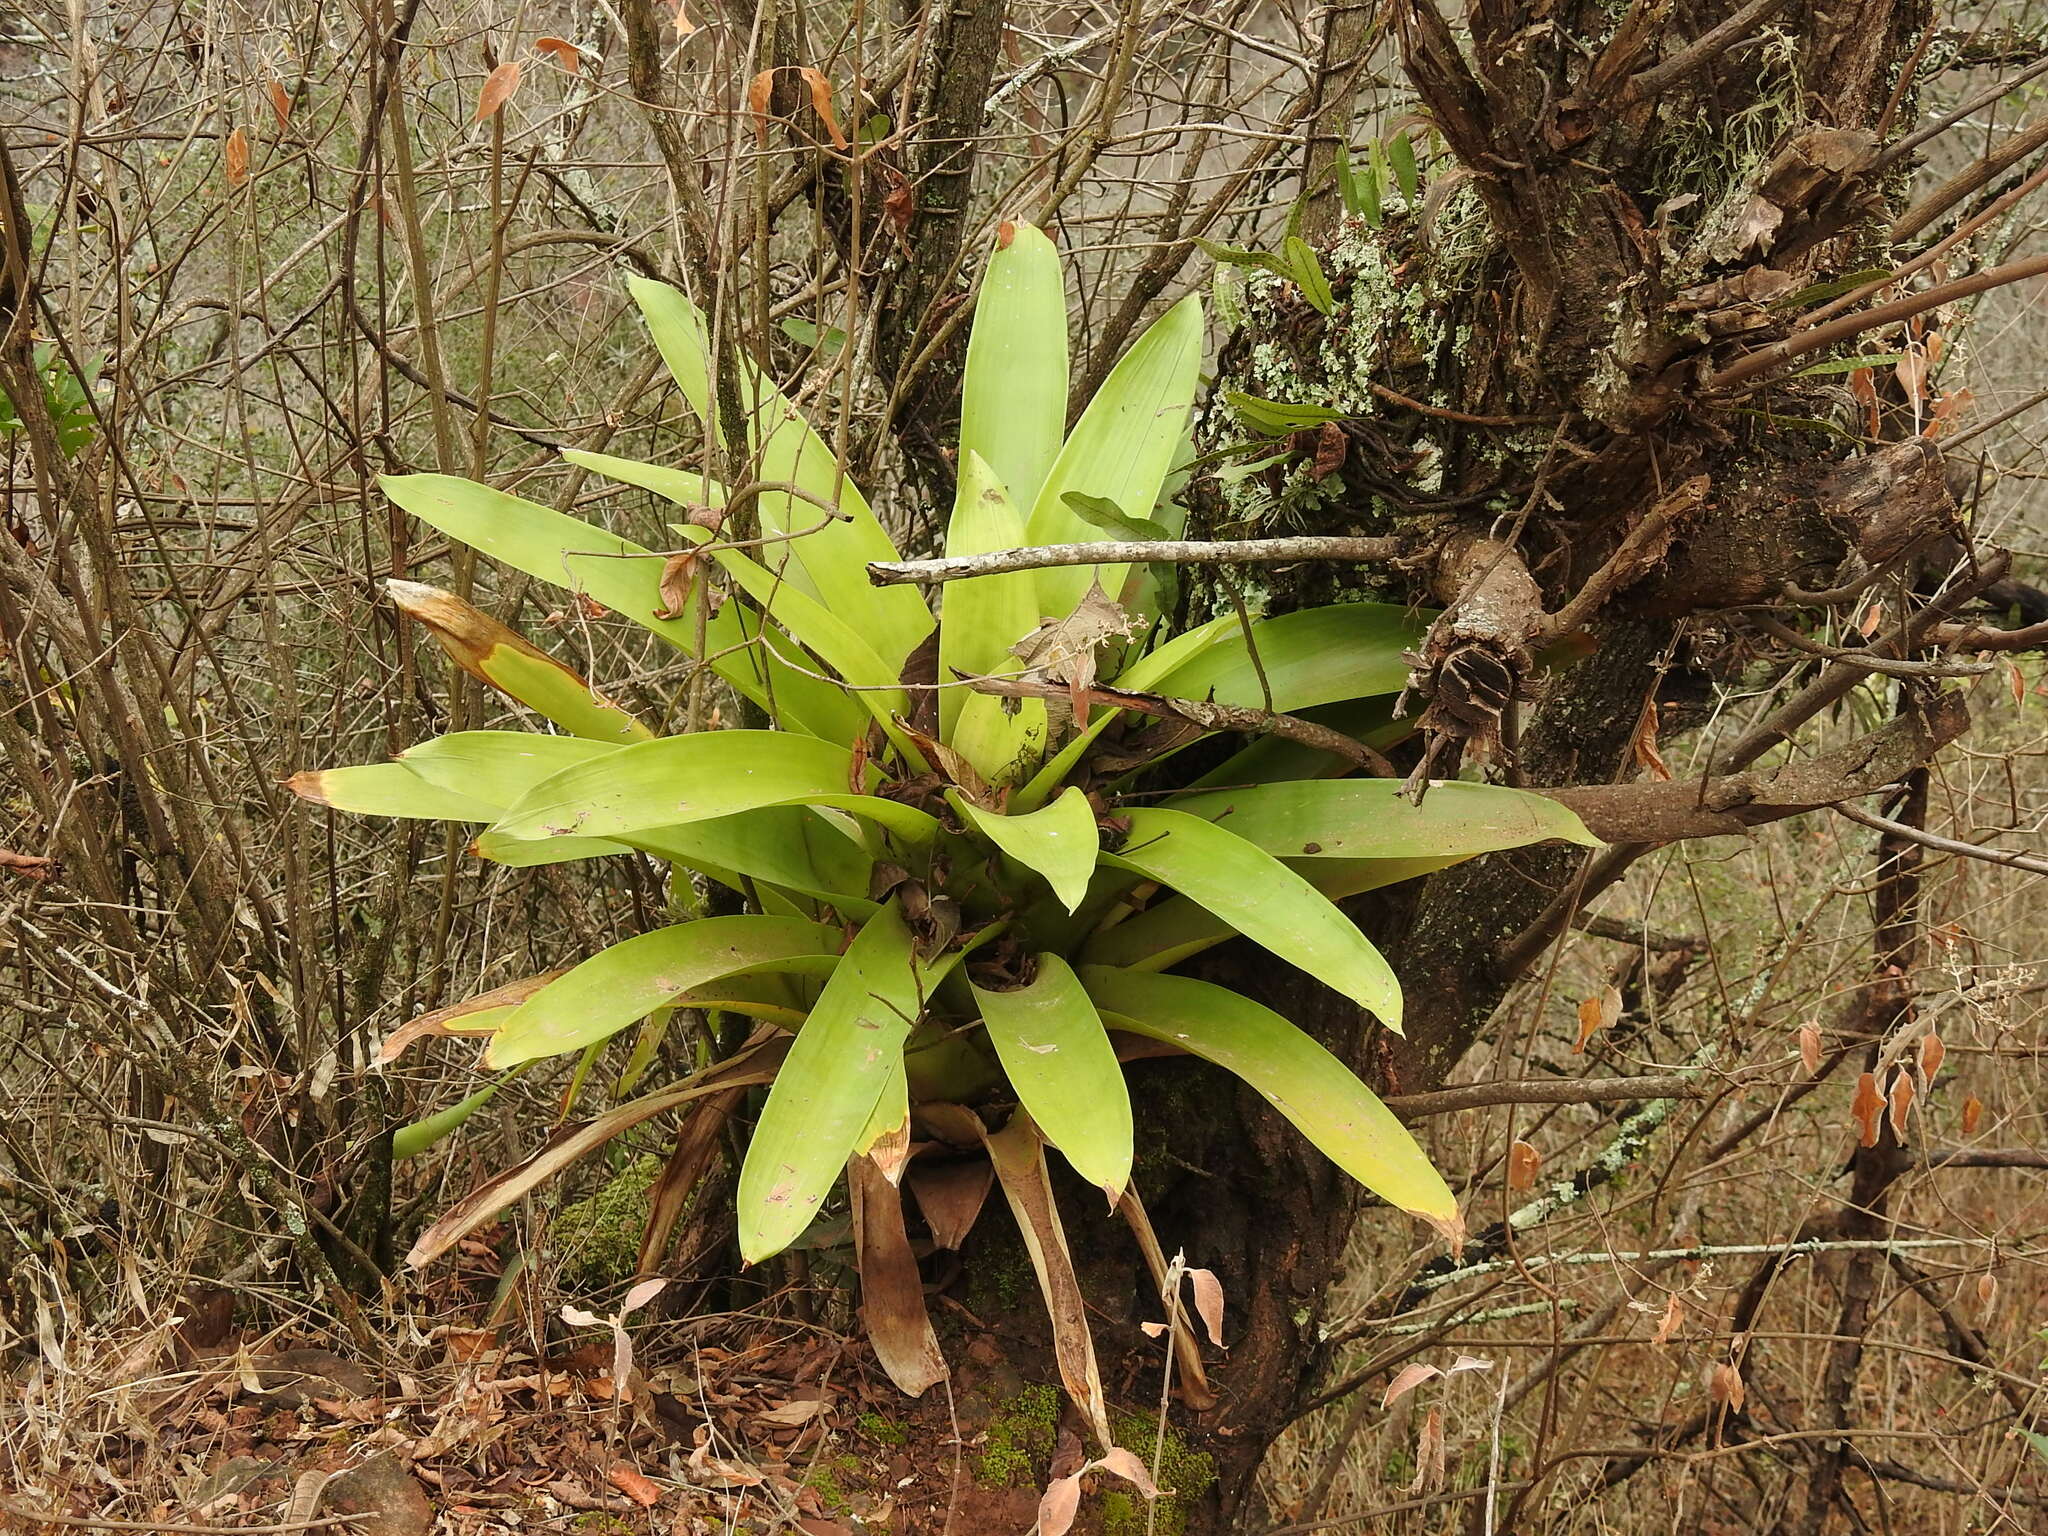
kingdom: Plantae
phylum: Tracheophyta
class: Liliopsida
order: Poales
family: Bromeliaceae
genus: Tillandsia
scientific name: Tillandsia australis
